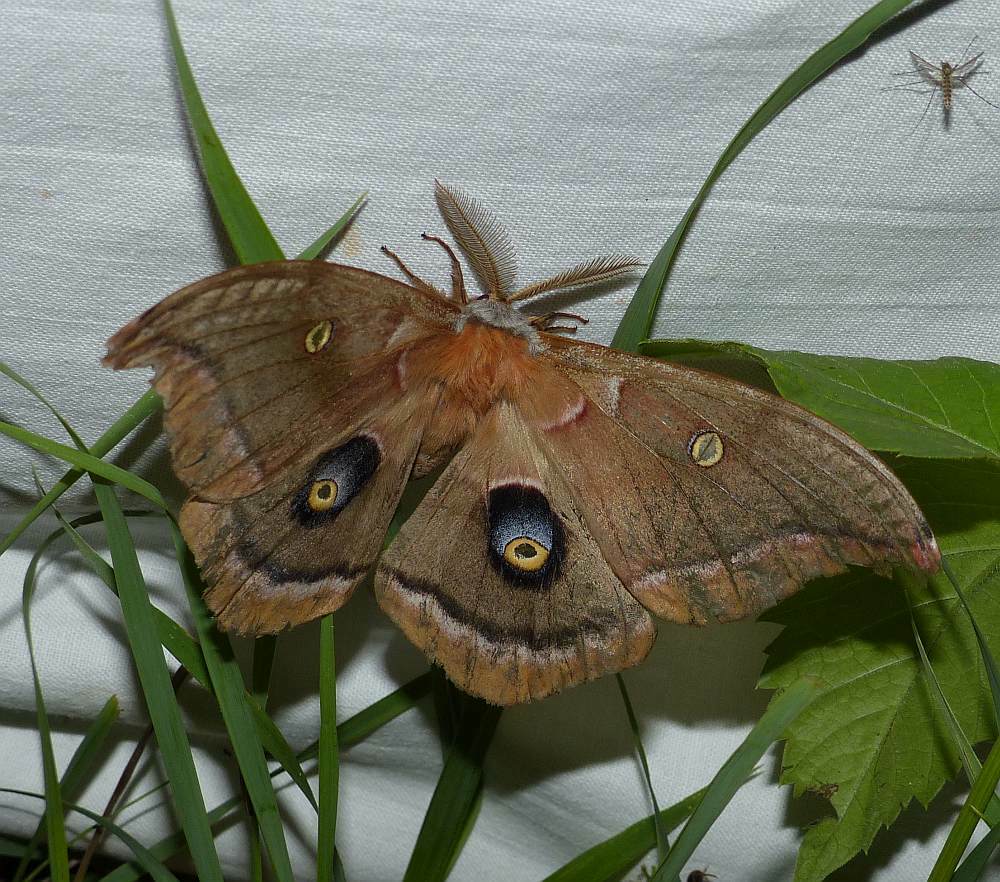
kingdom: Animalia
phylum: Arthropoda
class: Insecta
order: Lepidoptera
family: Saturniidae
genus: Antheraea
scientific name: Antheraea polyphemus
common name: Polyphemus moth
